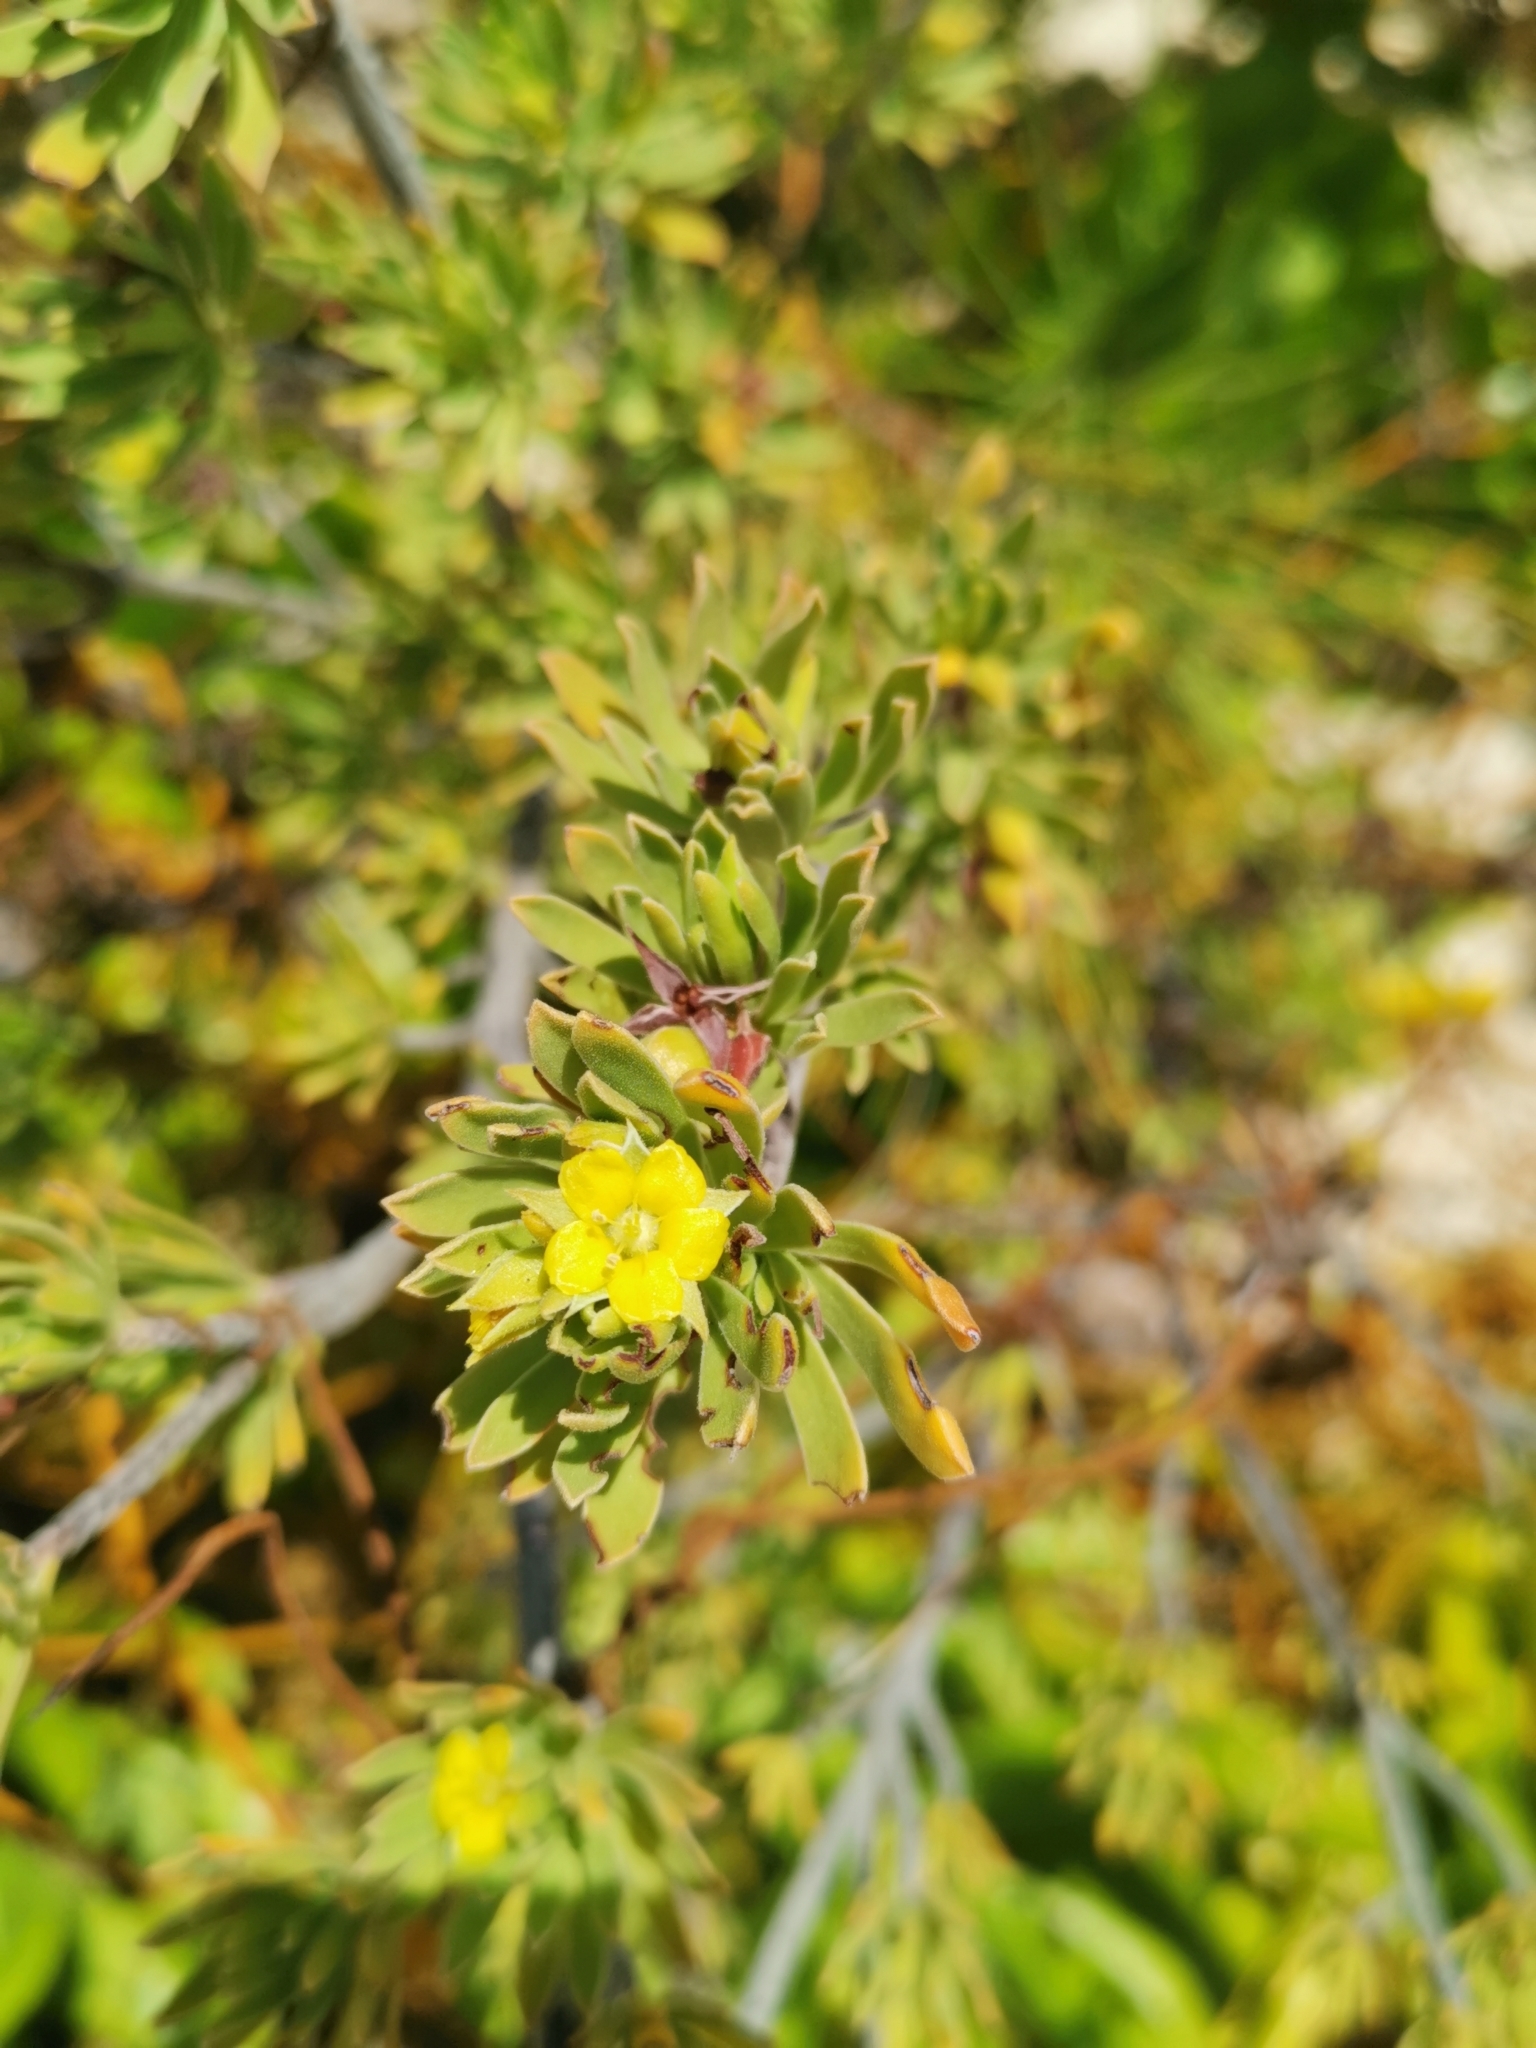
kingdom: Plantae
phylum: Tracheophyta
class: Magnoliopsida
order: Fabales
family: Surianaceae
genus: Suriana
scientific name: Suriana maritima
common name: Bay-cedar
